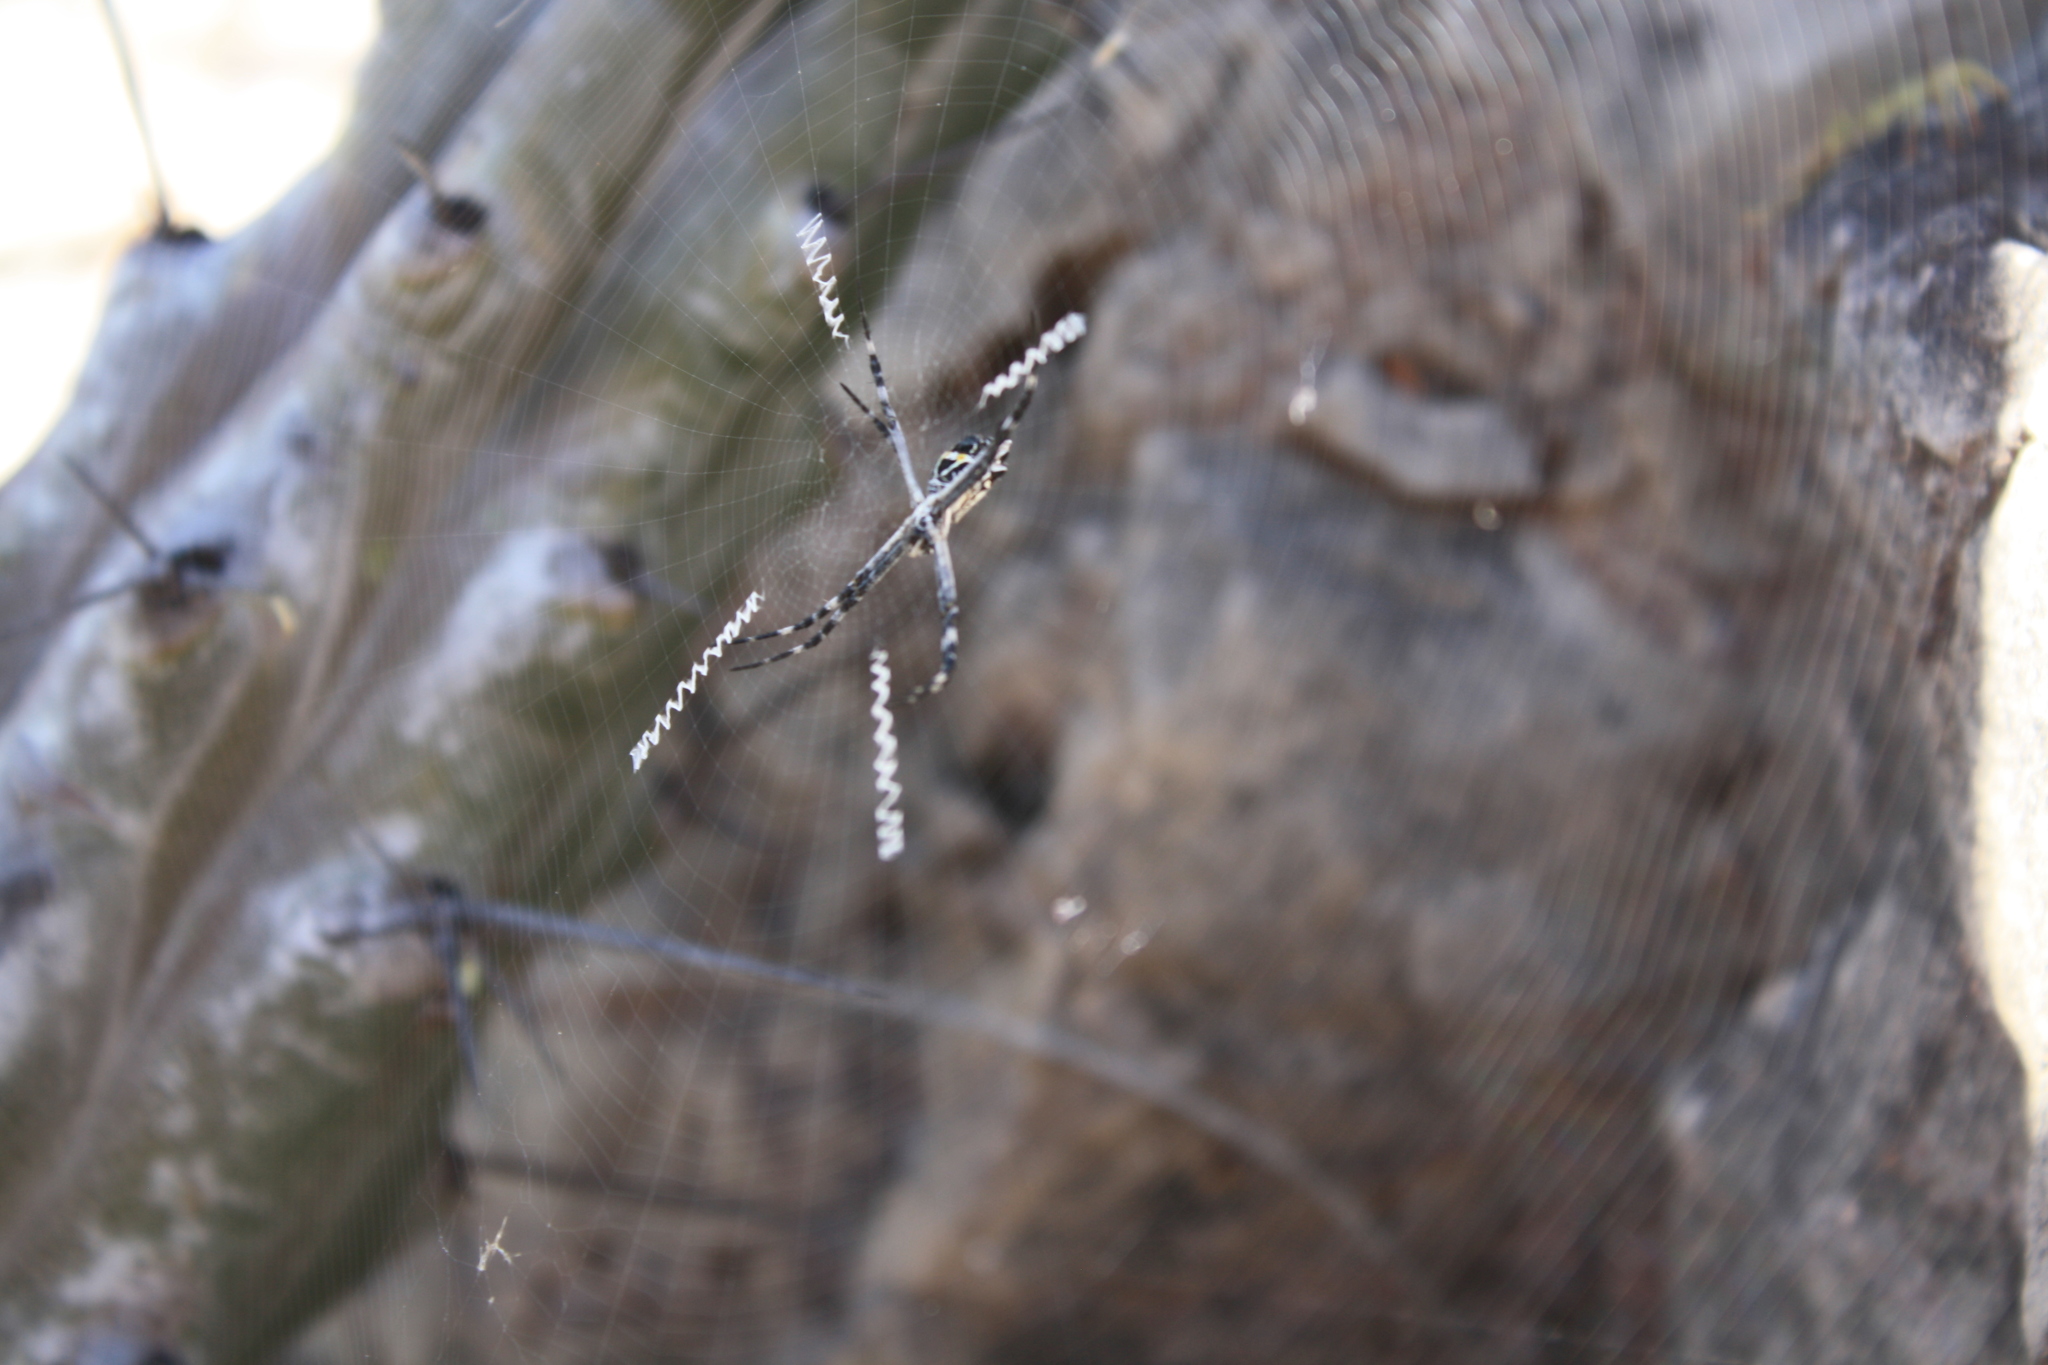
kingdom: Animalia
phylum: Arthropoda
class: Arachnida
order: Araneae
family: Araneidae
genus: Argiope
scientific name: Argiope argentata
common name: Orb weavers
